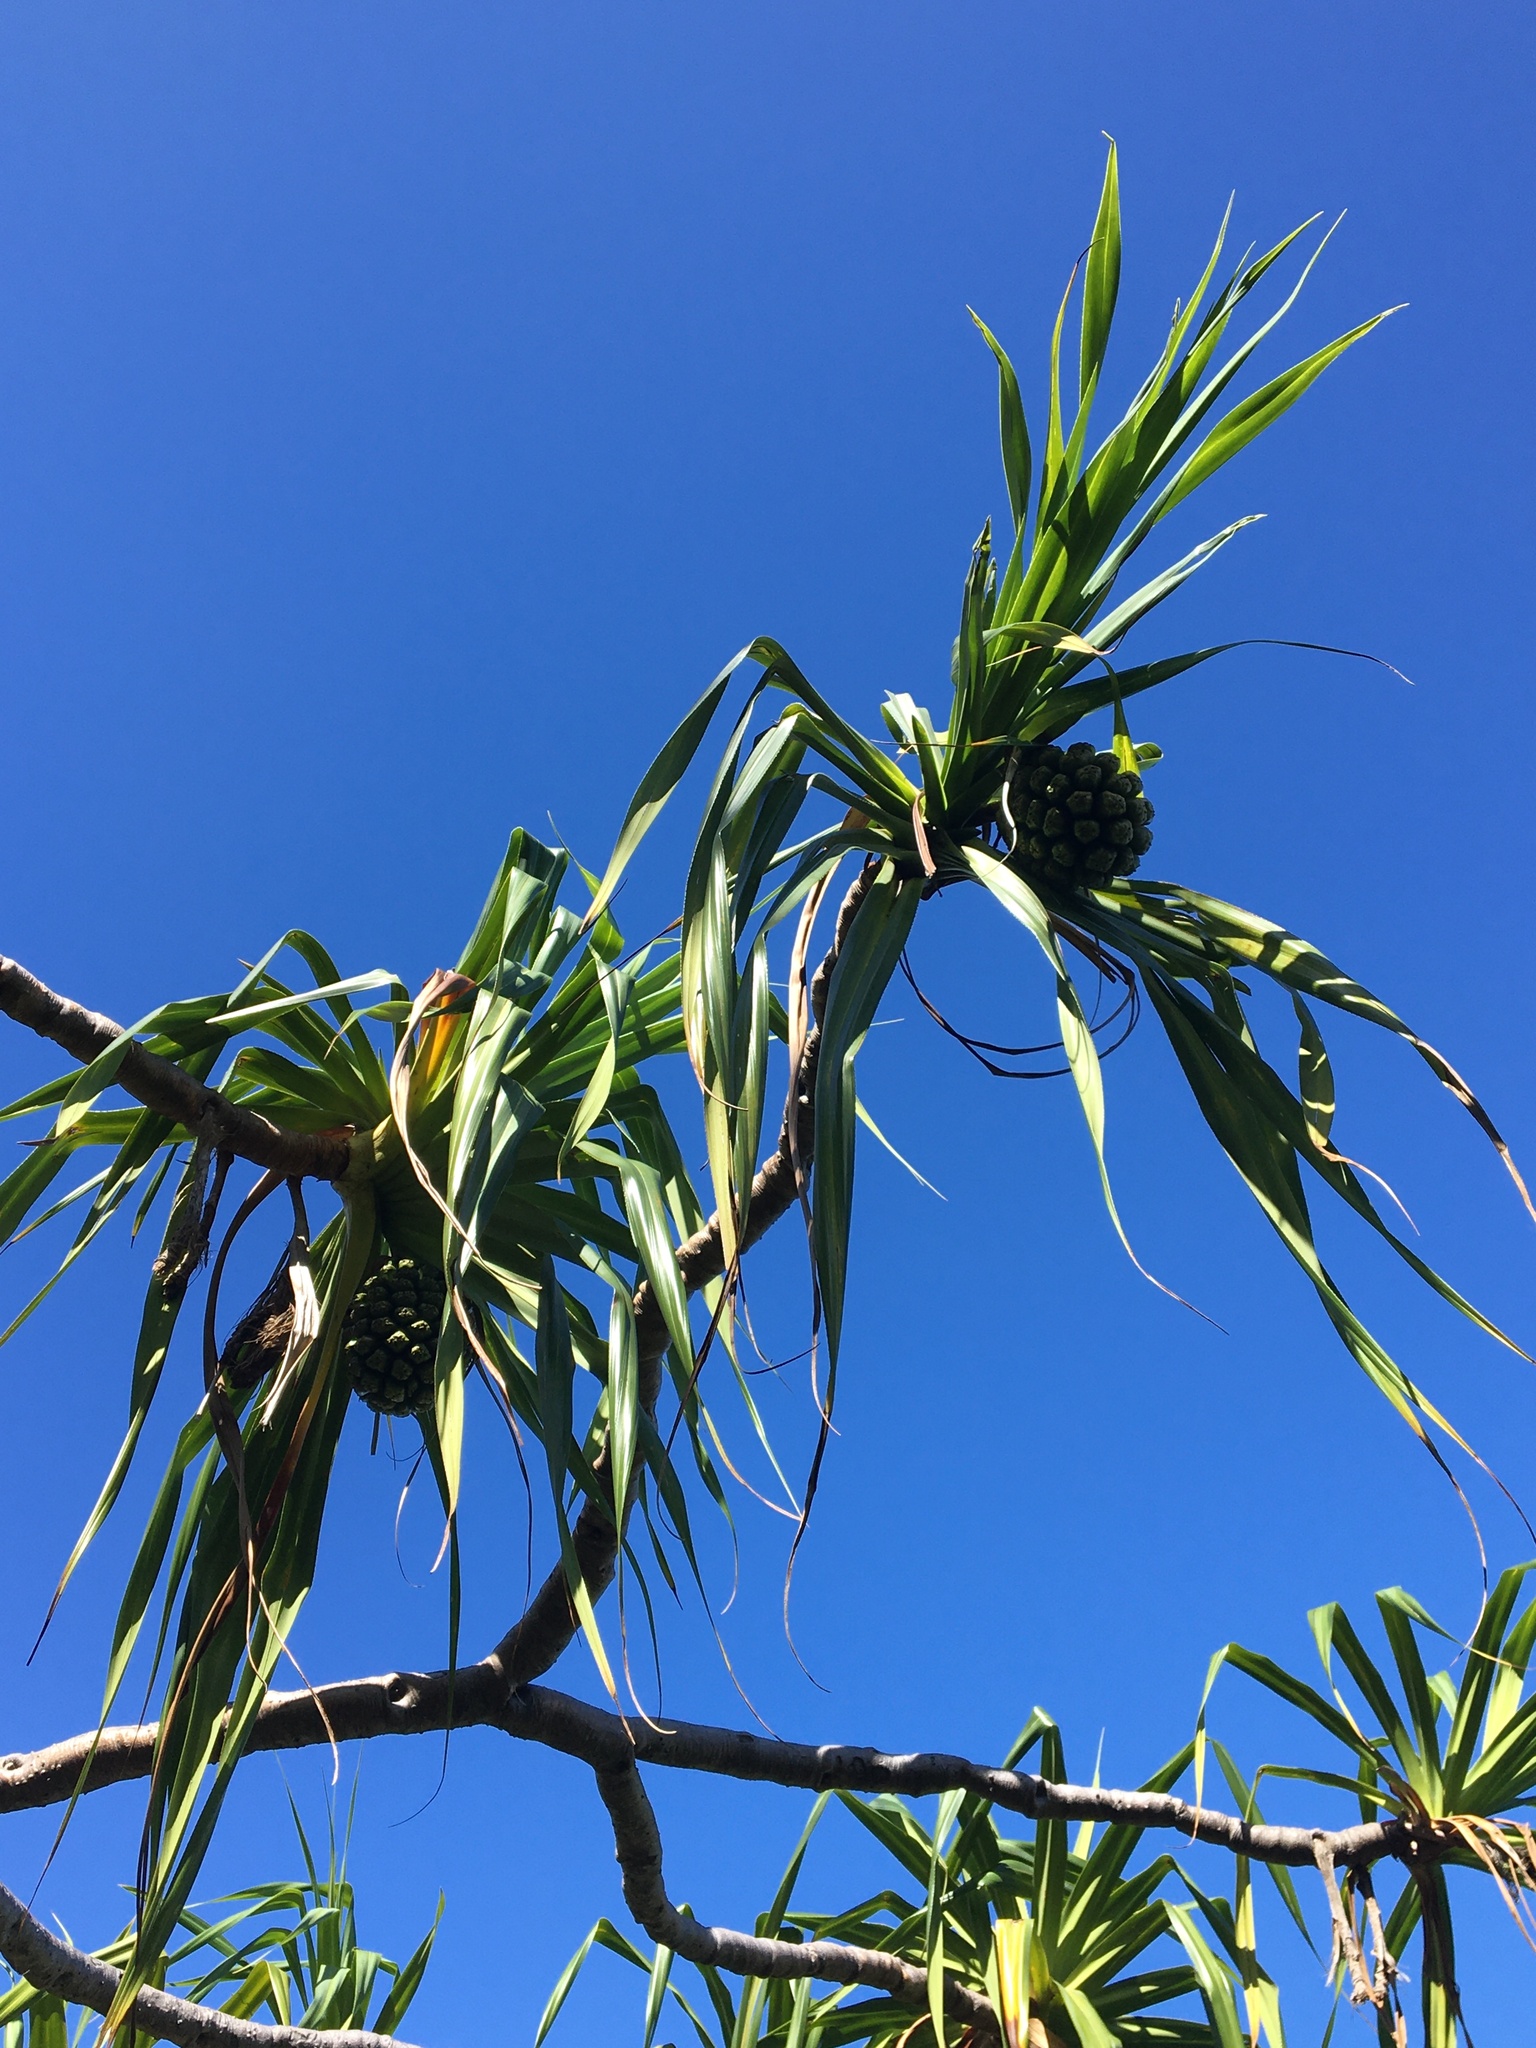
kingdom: Plantae
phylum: Tracheophyta
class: Liliopsida
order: Pandanales
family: Pandanaceae
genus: Pandanus
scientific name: Pandanus tectorius
